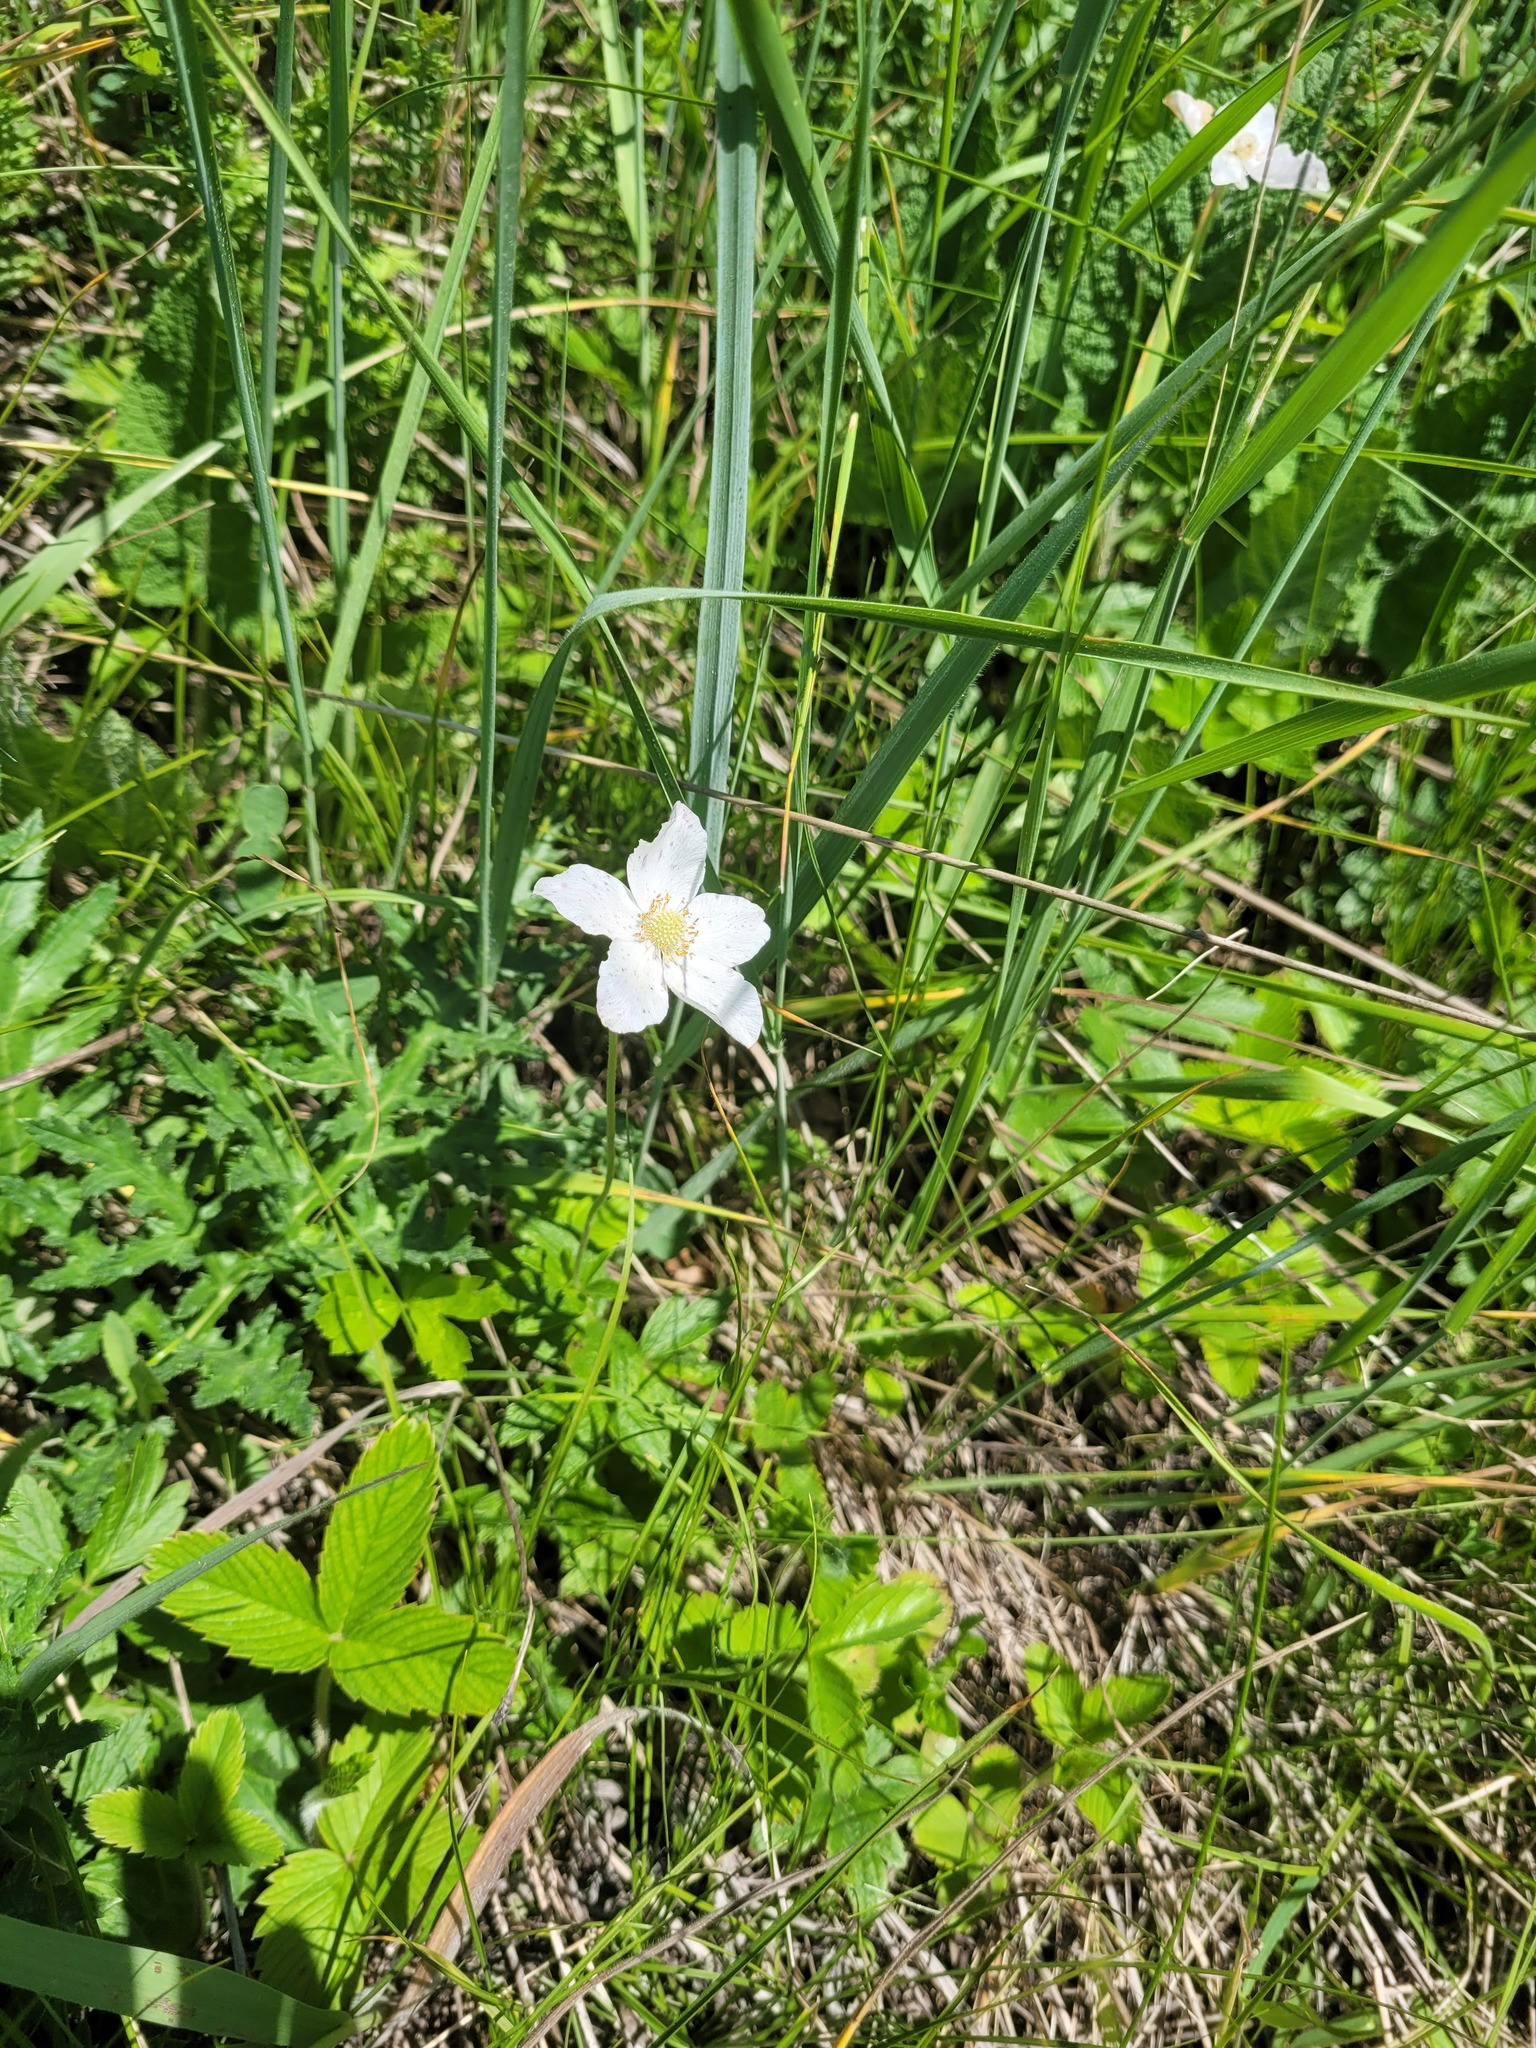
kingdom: Plantae
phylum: Tracheophyta
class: Magnoliopsida
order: Ranunculales
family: Ranunculaceae
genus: Anemone
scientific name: Anemone sylvestris
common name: Snowdrop anemone
